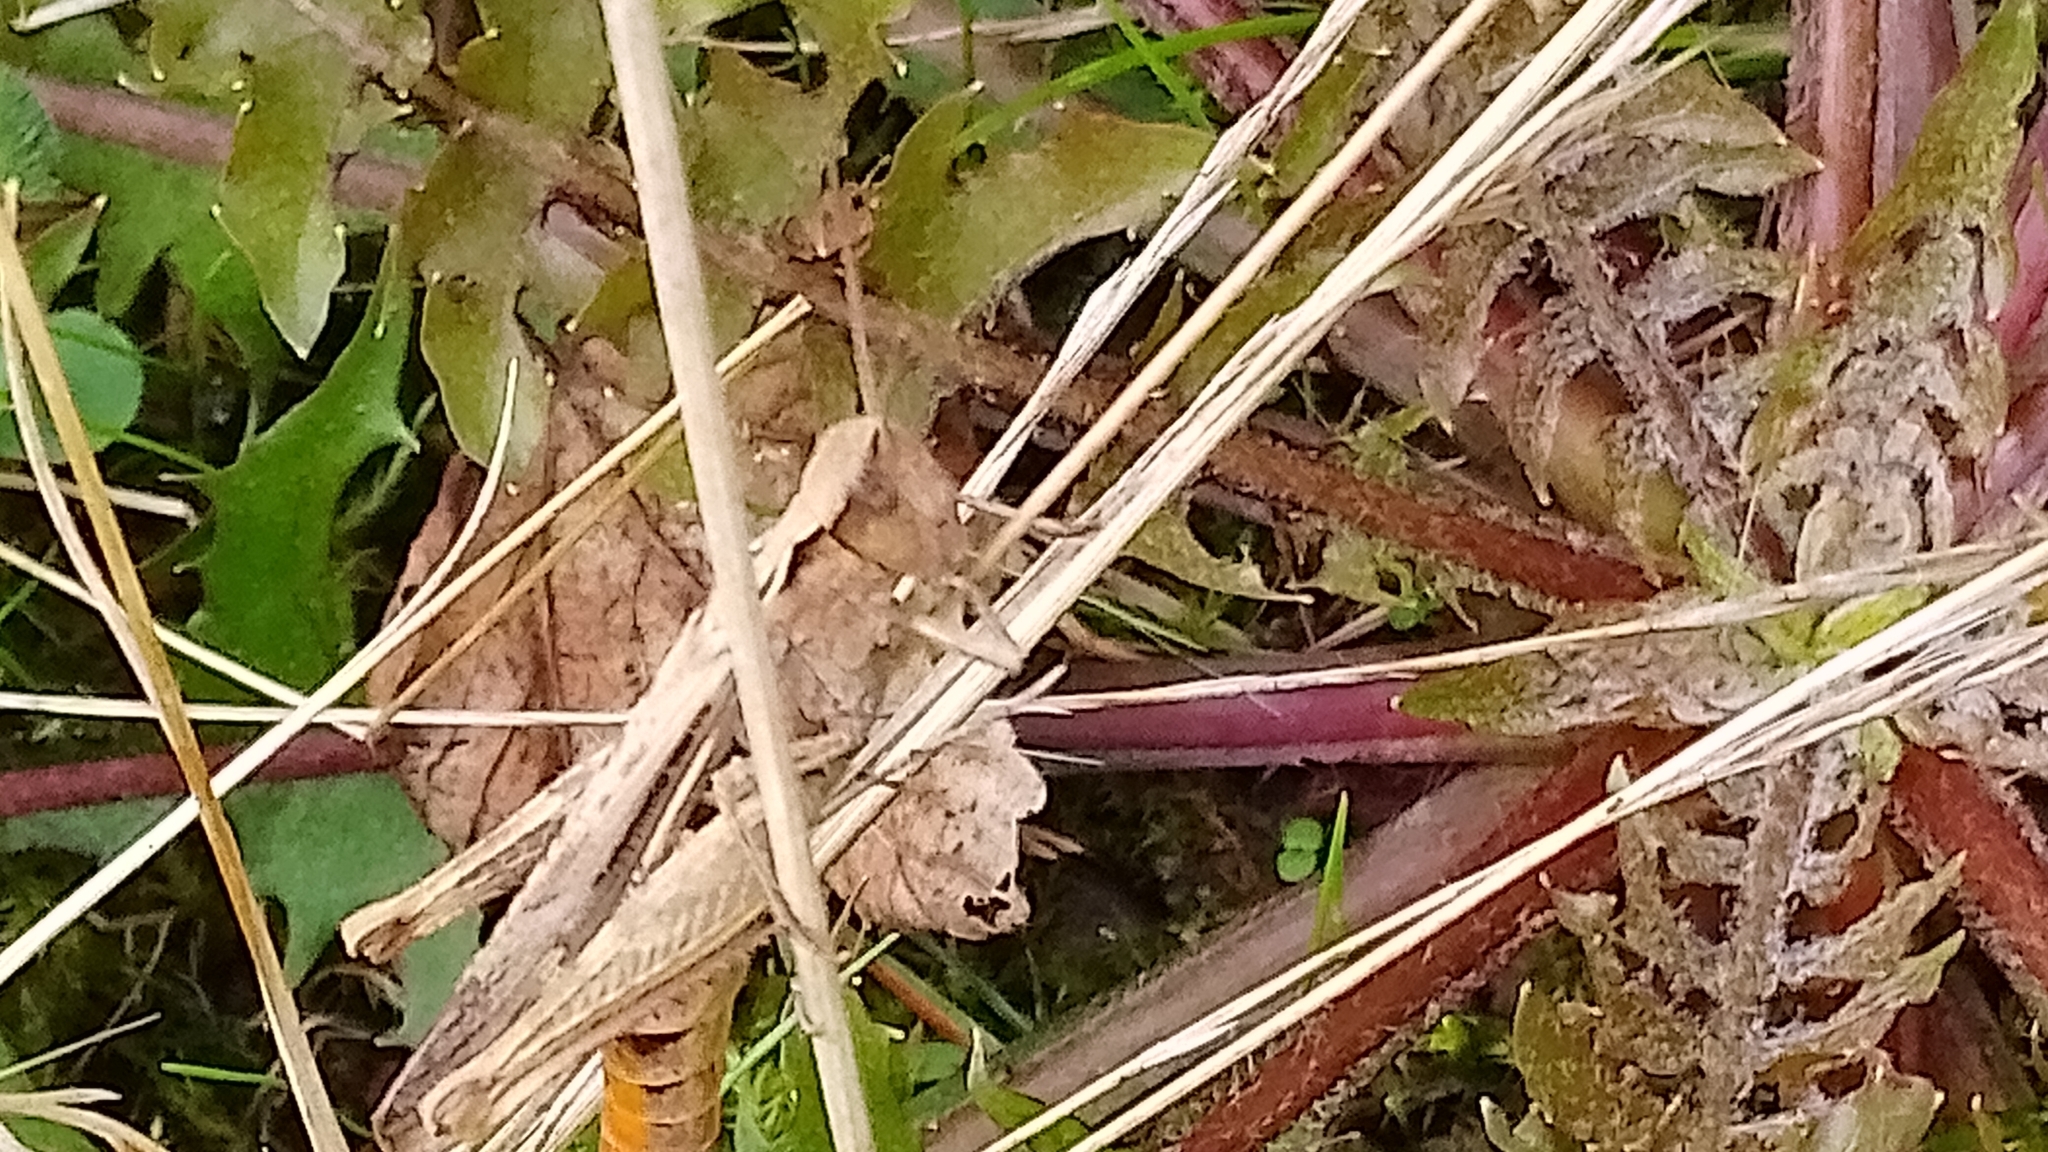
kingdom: Animalia
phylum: Arthropoda
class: Insecta
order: Orthoptera
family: Acrididae
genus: Chorthippus
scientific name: Chorthippus brunneus
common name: Field grasshopper
